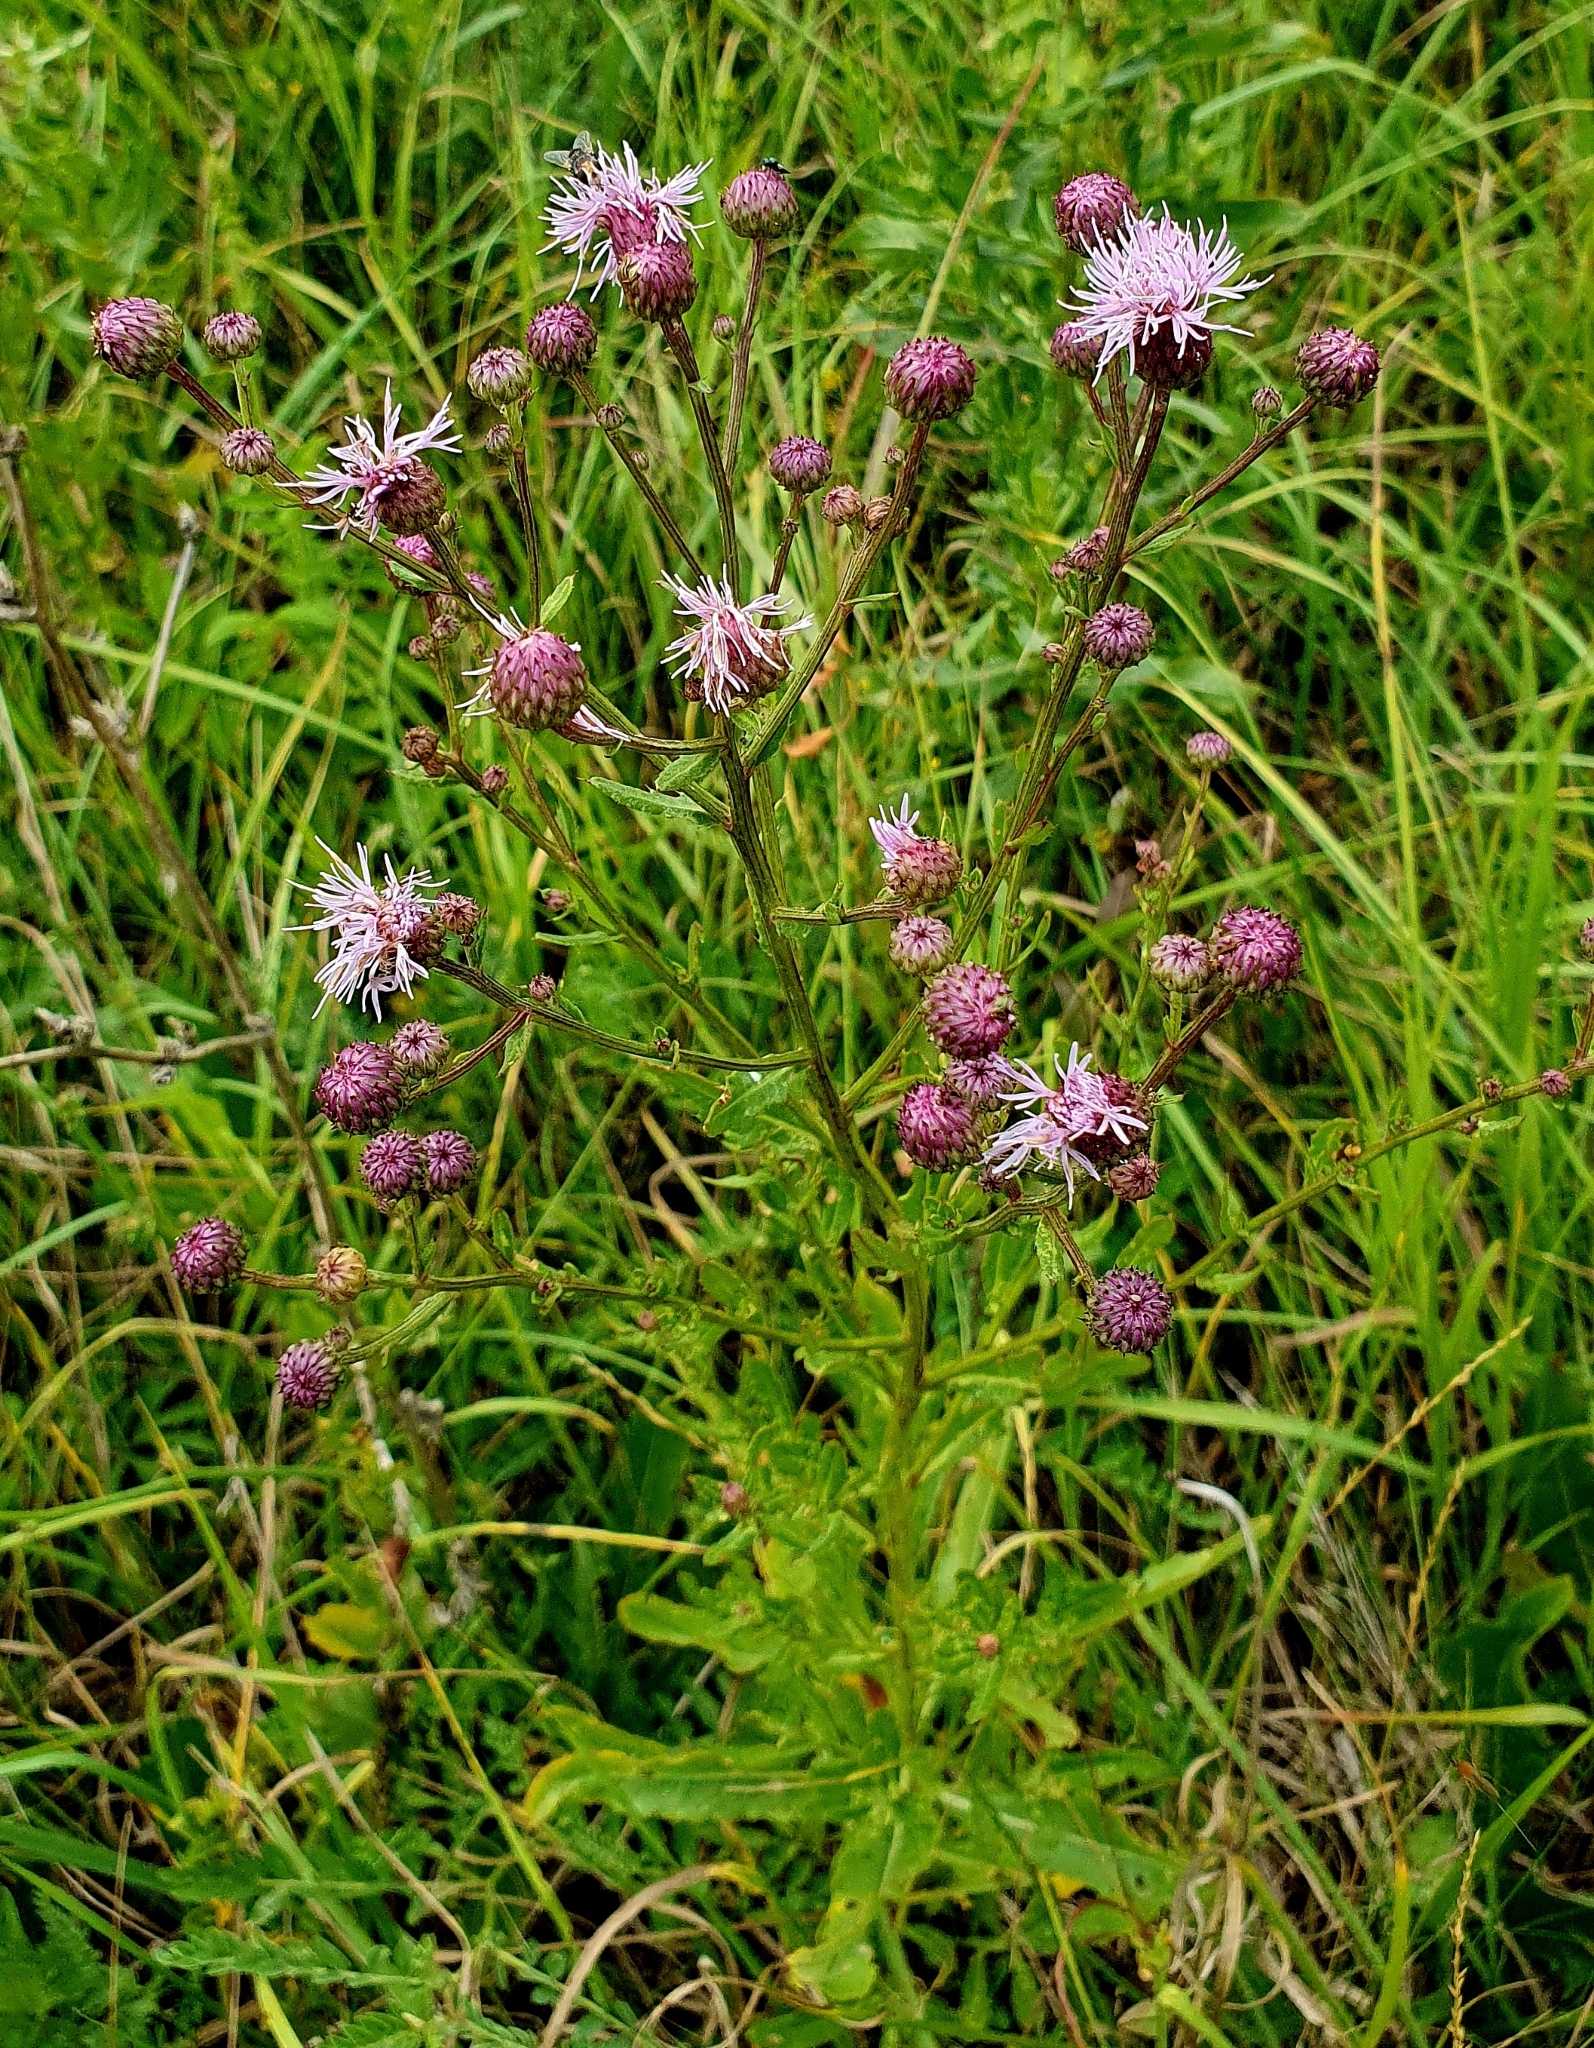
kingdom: Plantae
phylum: Tracheophyta
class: Magnoliopsida
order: Asterales
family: Asteraceae
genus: Cirsium
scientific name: Cirsium arvense
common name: Creeping thistle
